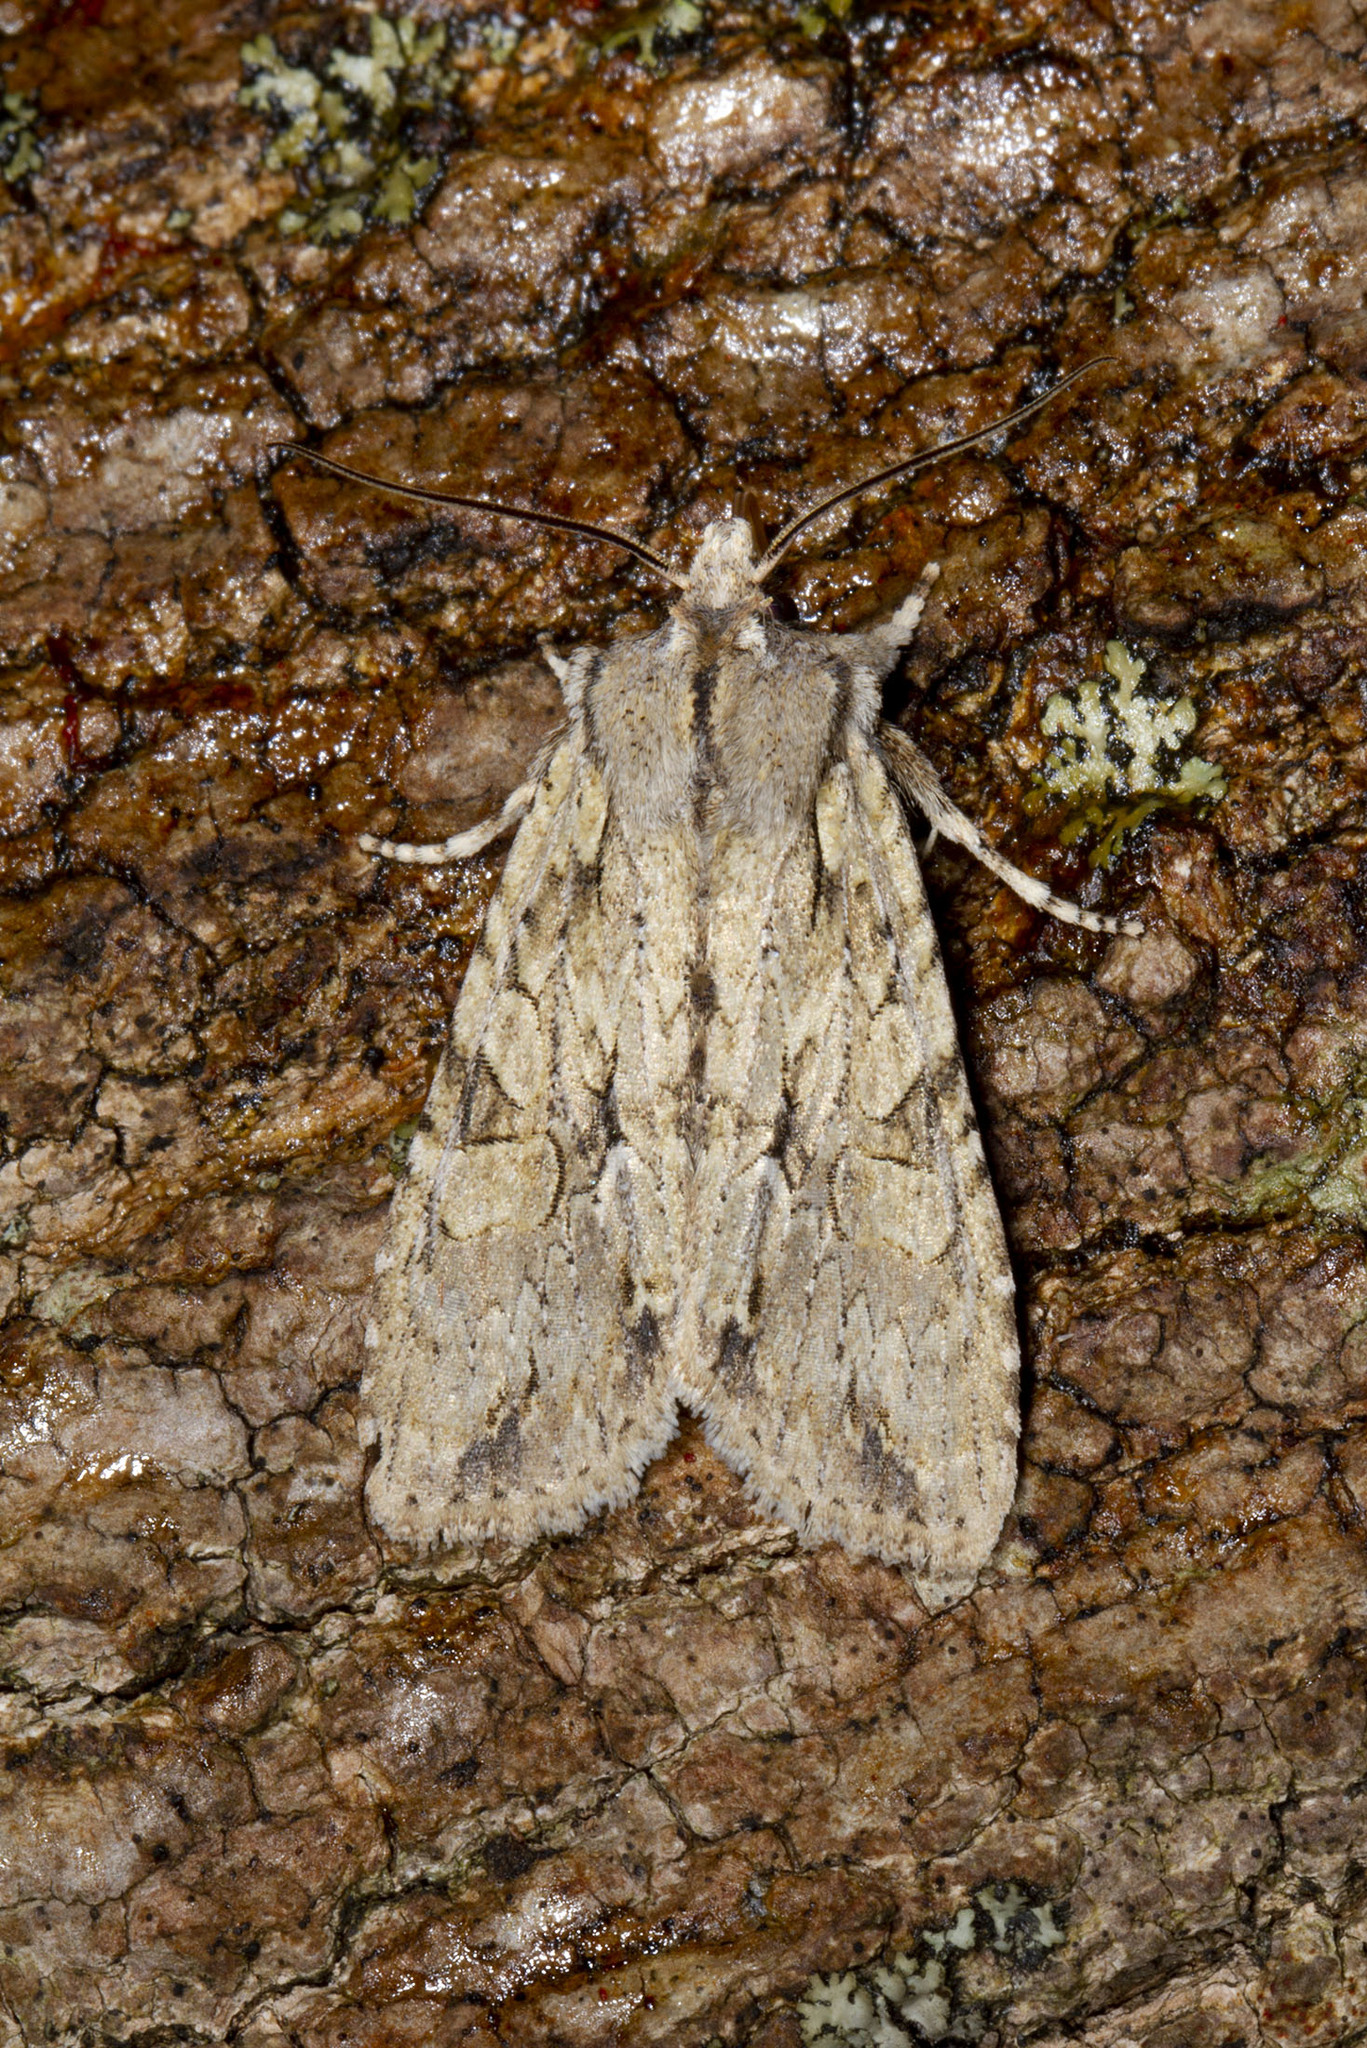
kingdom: Animalia
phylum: Arthropoda
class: Insecta
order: Lepidoptera
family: Noctuidae
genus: Lithophane
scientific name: Lithophane disposita
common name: Dashed gray pinion moth
